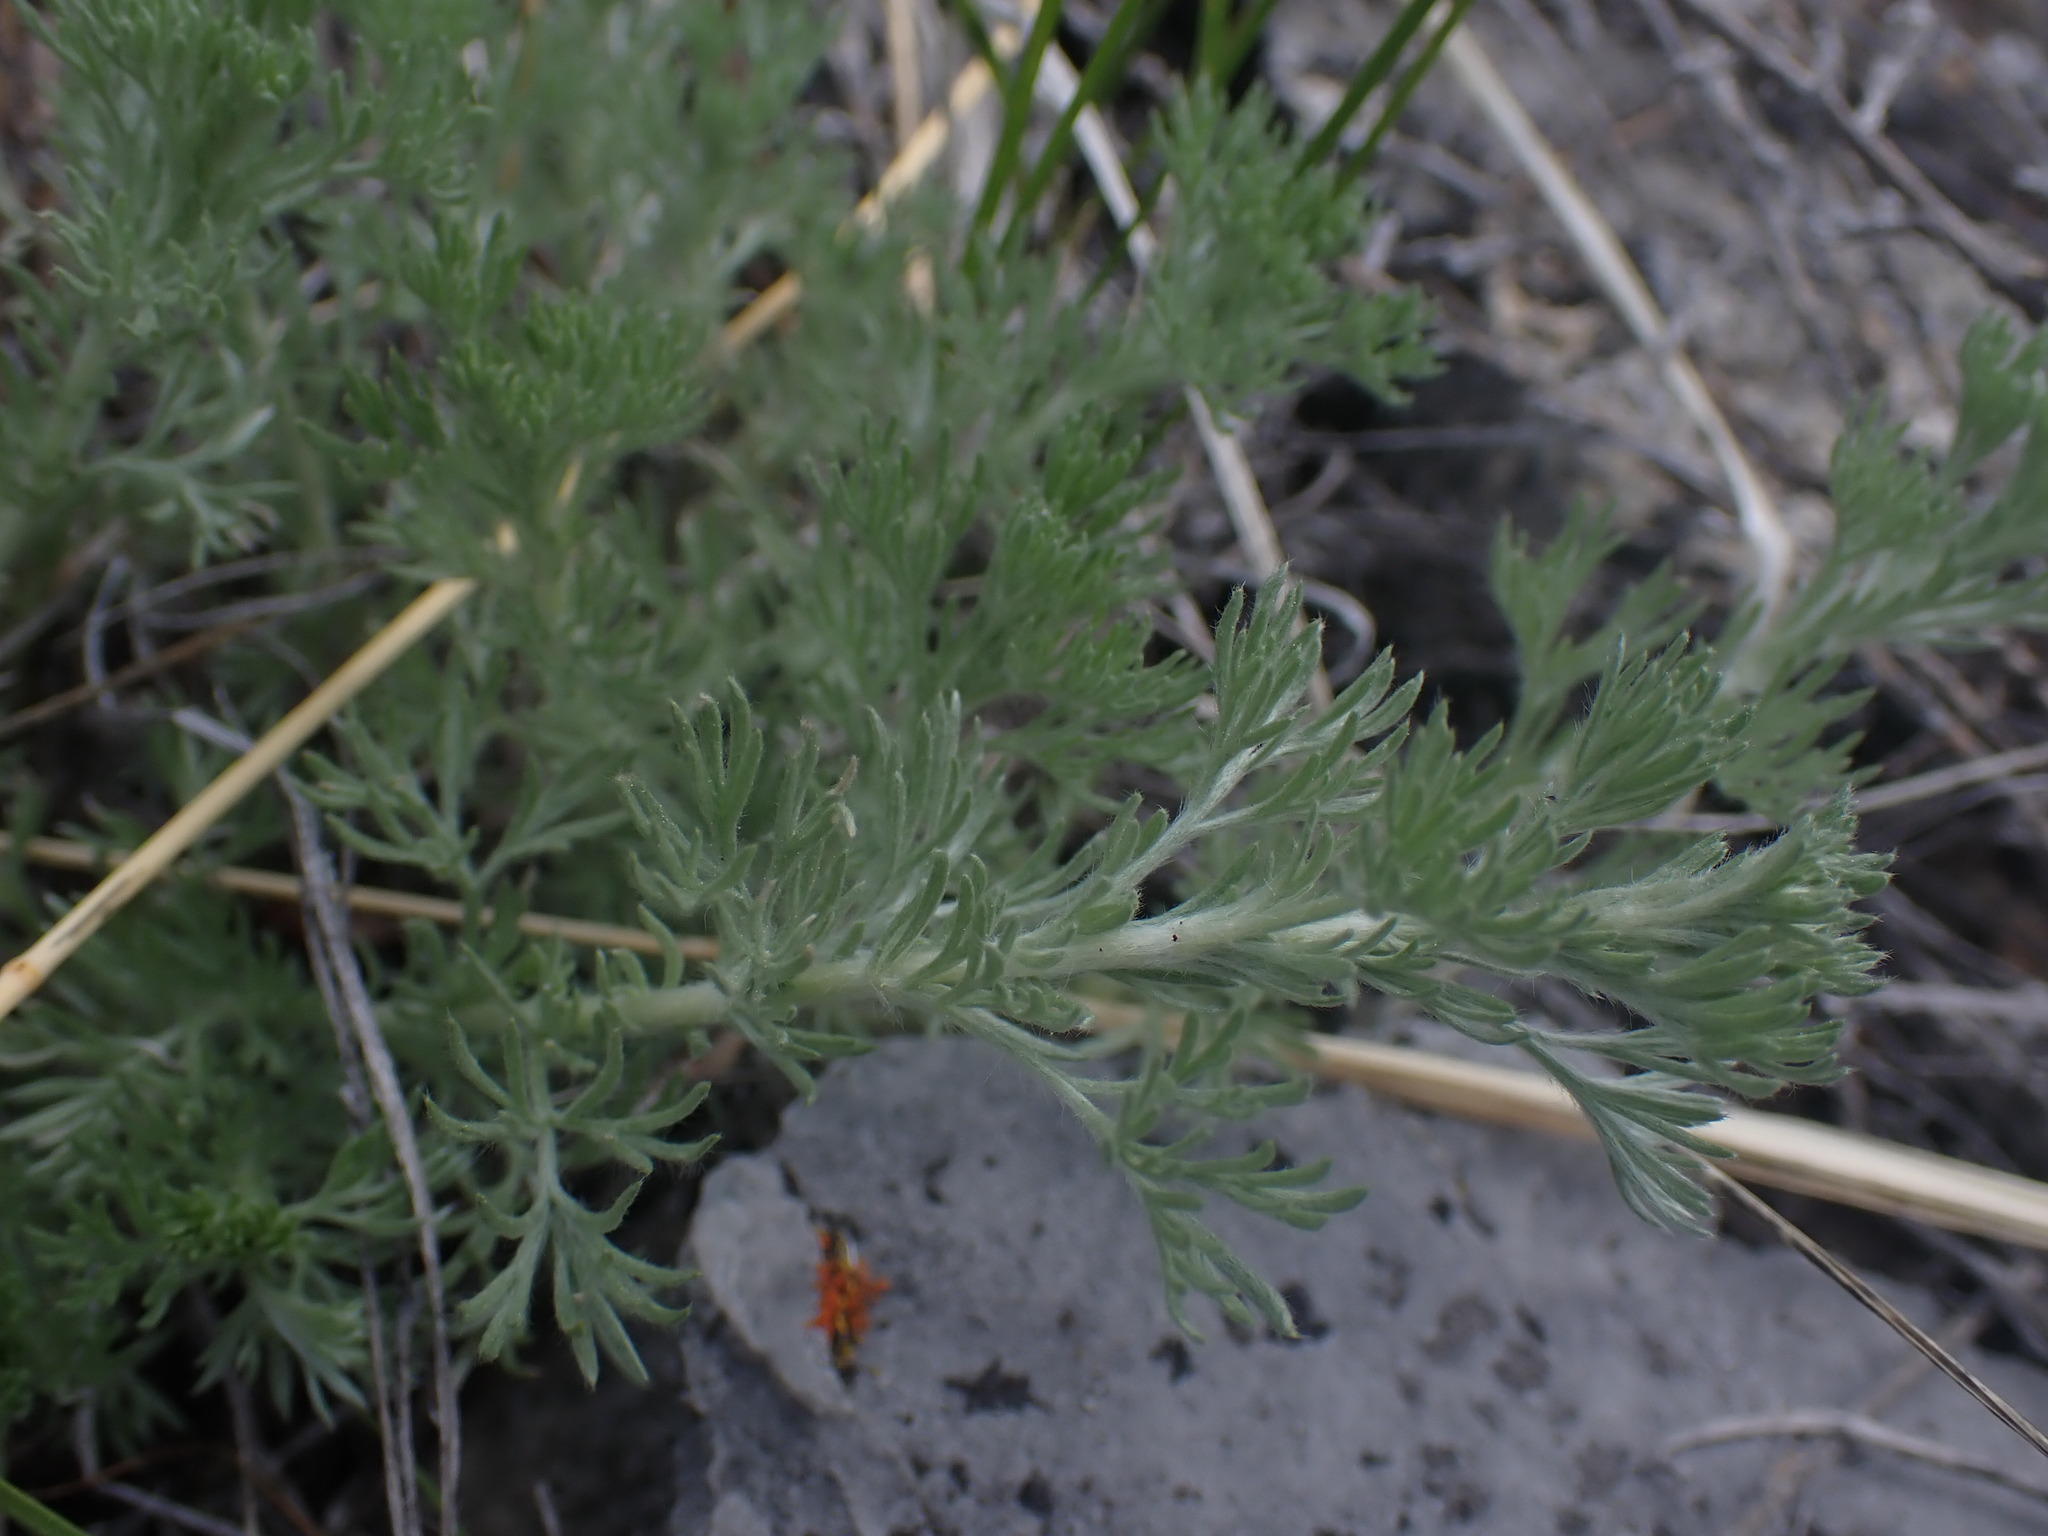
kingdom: Plantae
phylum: Tracheophyta
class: Magnoliopsida
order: Asterales
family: Asteraceae
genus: Artemisia
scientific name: Artemisia frigida
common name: Prairie sagewort
